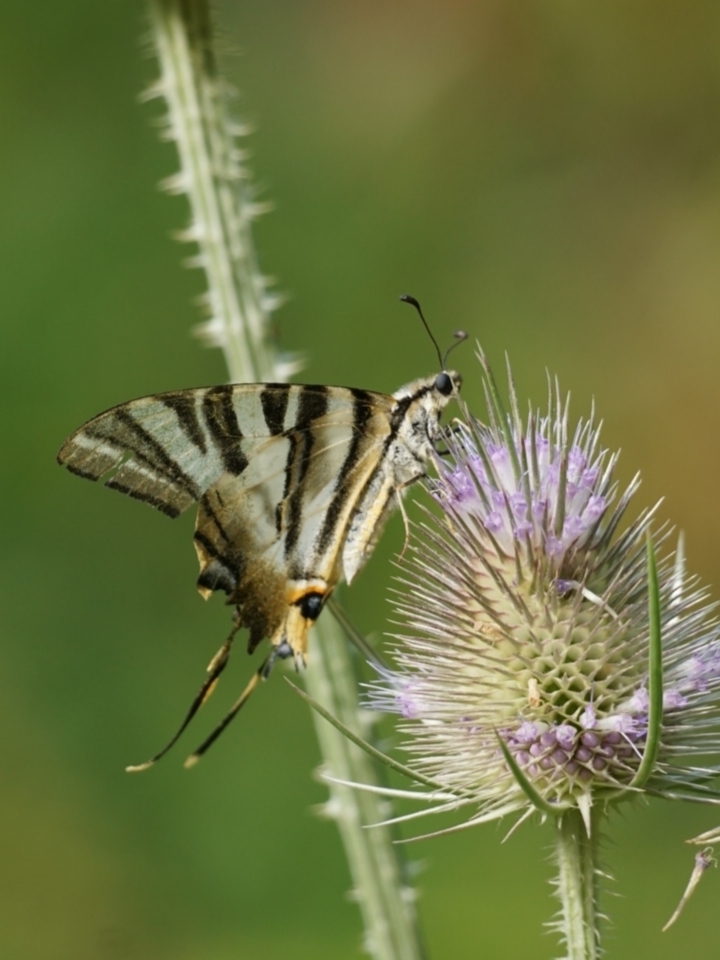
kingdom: Animalia
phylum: Arthropoda
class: Insecta
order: Lepidoptera
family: Papilionidae
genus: Iphiclides
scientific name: Iphiclides feisthamelii
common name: Iberian scarce swallowtail
